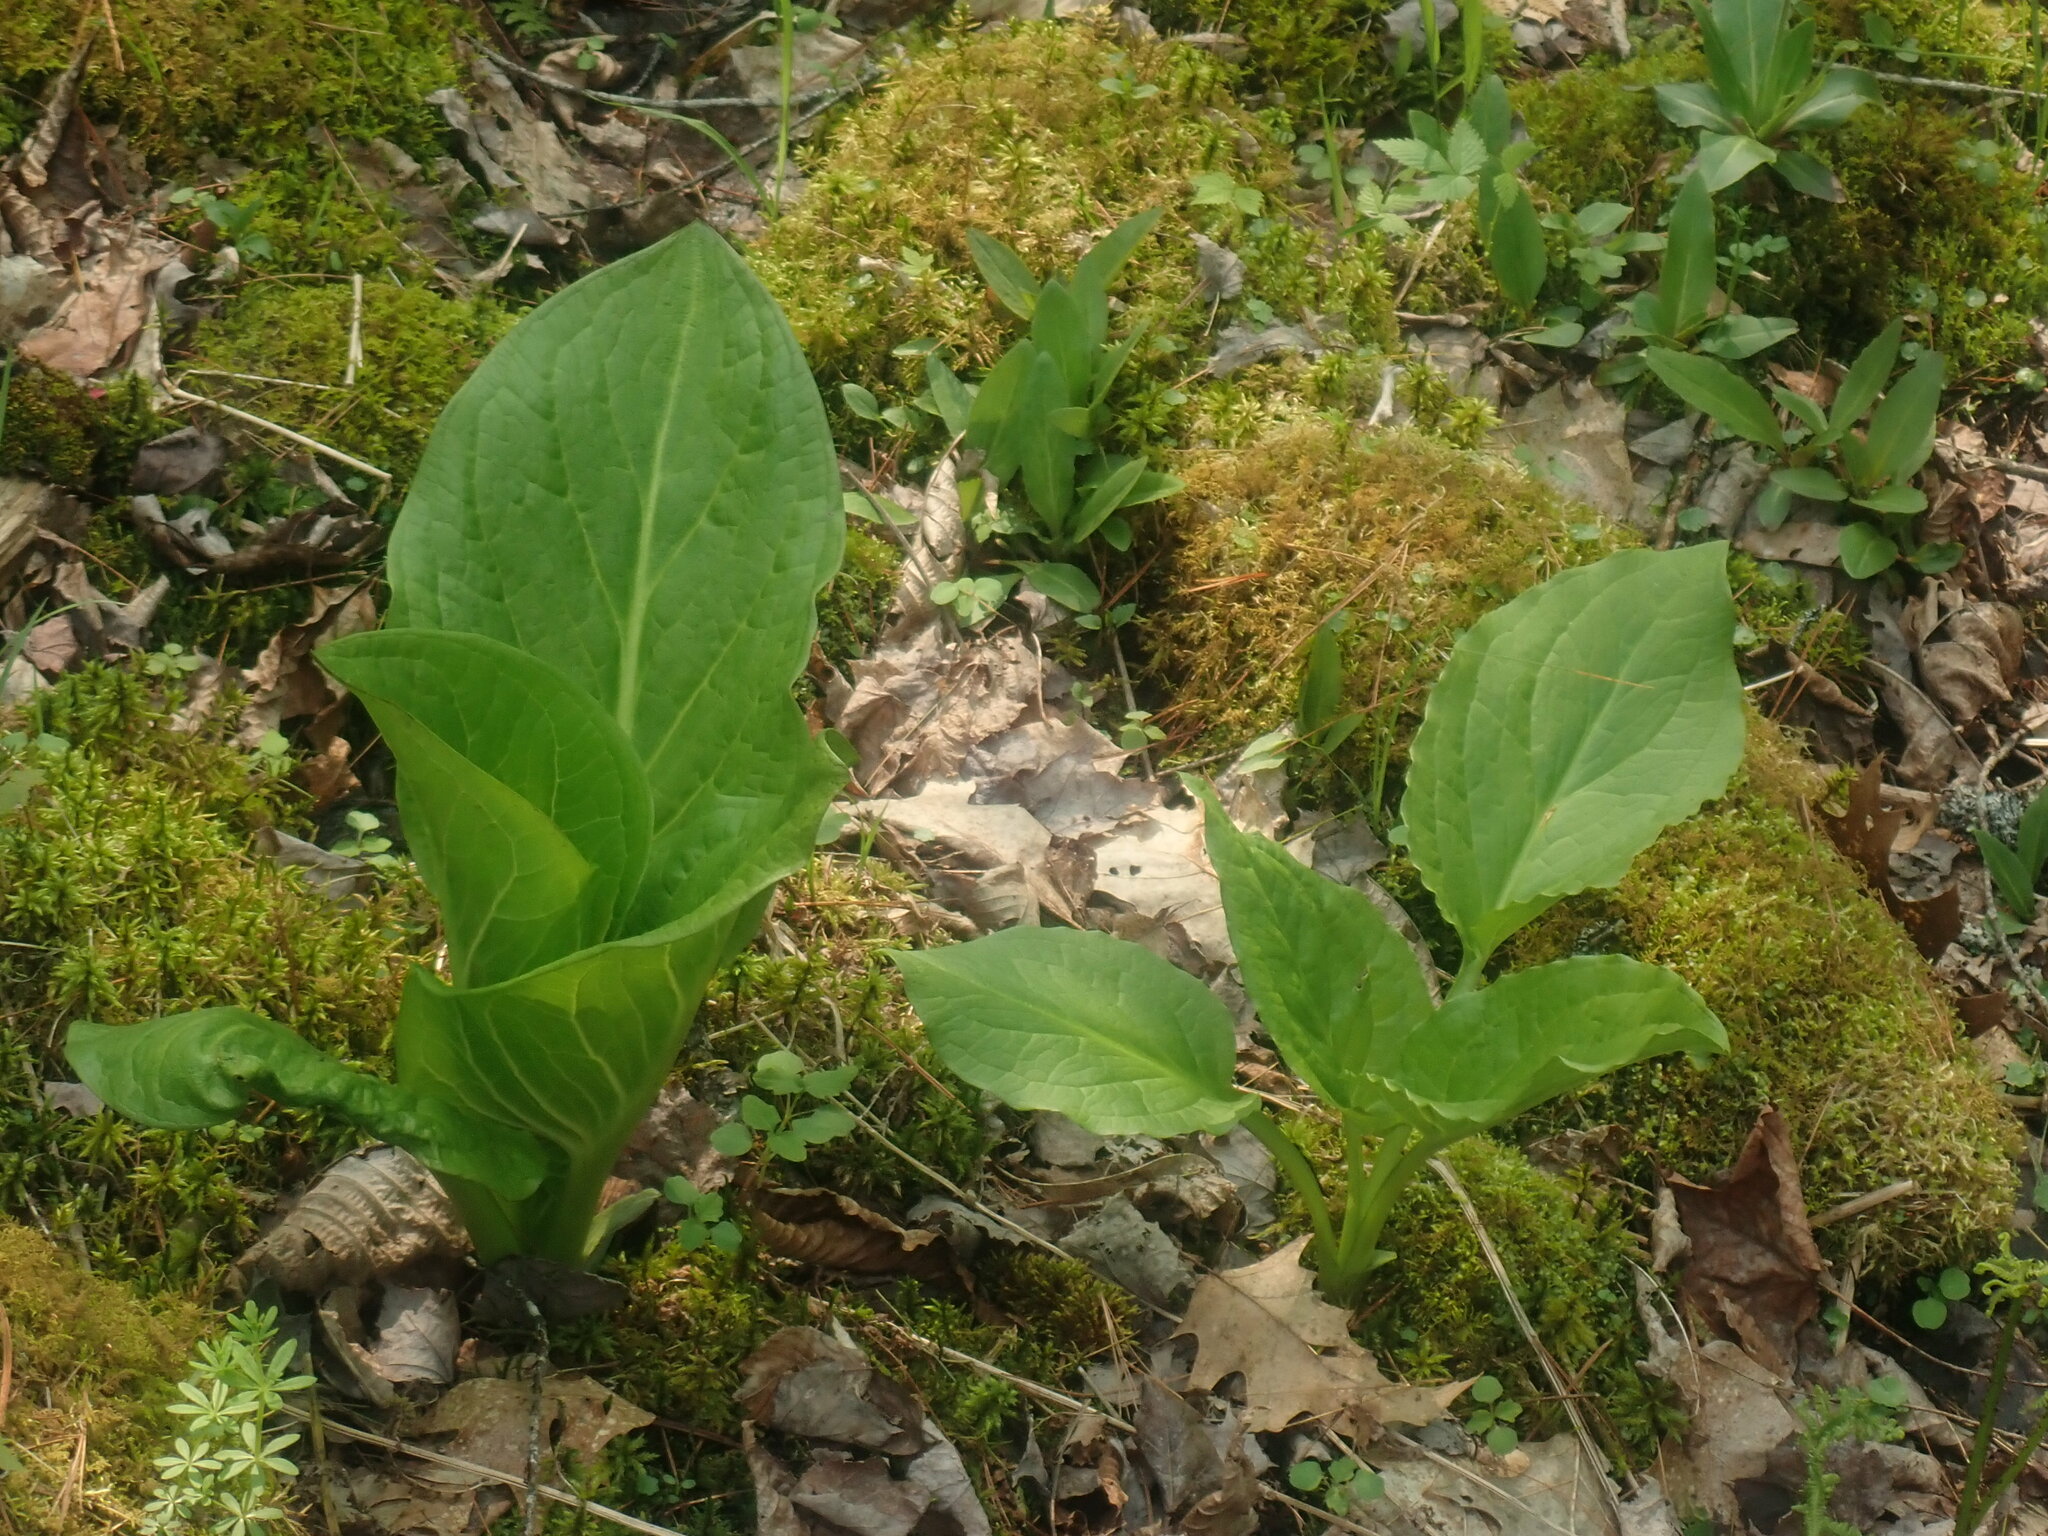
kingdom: Plantae
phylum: Tracheophyta
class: Liliopsida
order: Alismatales
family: Araceae
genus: Symplocarpus
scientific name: Symplocarpus foetidus
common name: Eastern skunk cabbage
